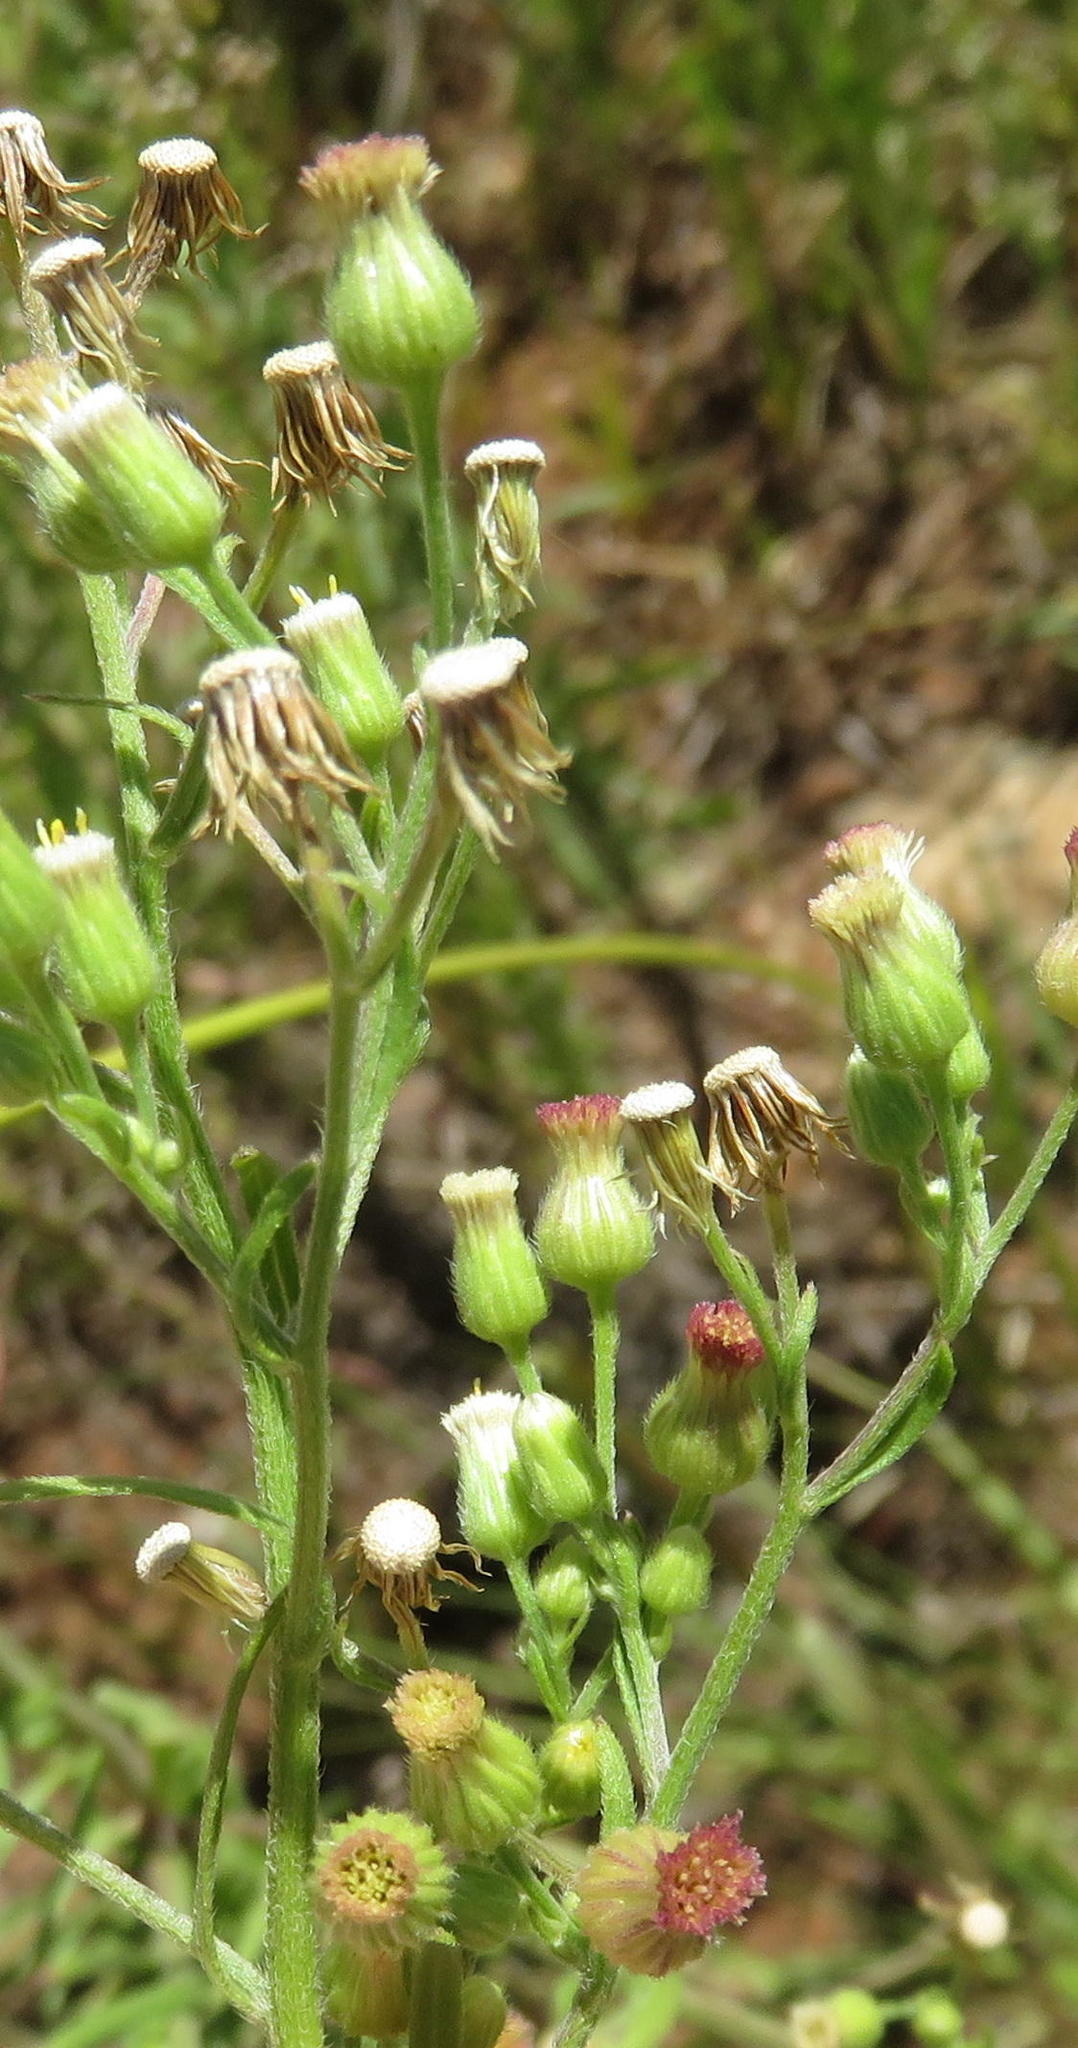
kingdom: Plantae
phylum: Tracheophyta
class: Magnoliopsida
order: Asterales
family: Asteraceae
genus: Erigeron
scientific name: Erigeron sumatrensis
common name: Daisy
